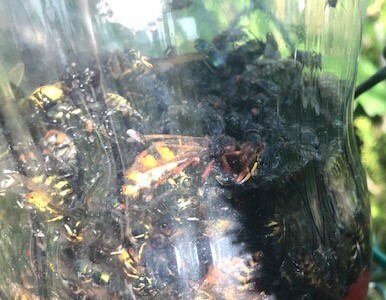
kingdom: Animalia
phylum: Arthropoda
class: Insecta
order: Hymenoptera
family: Vespidae
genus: Vespa
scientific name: Vespa crabro
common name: Hornet
